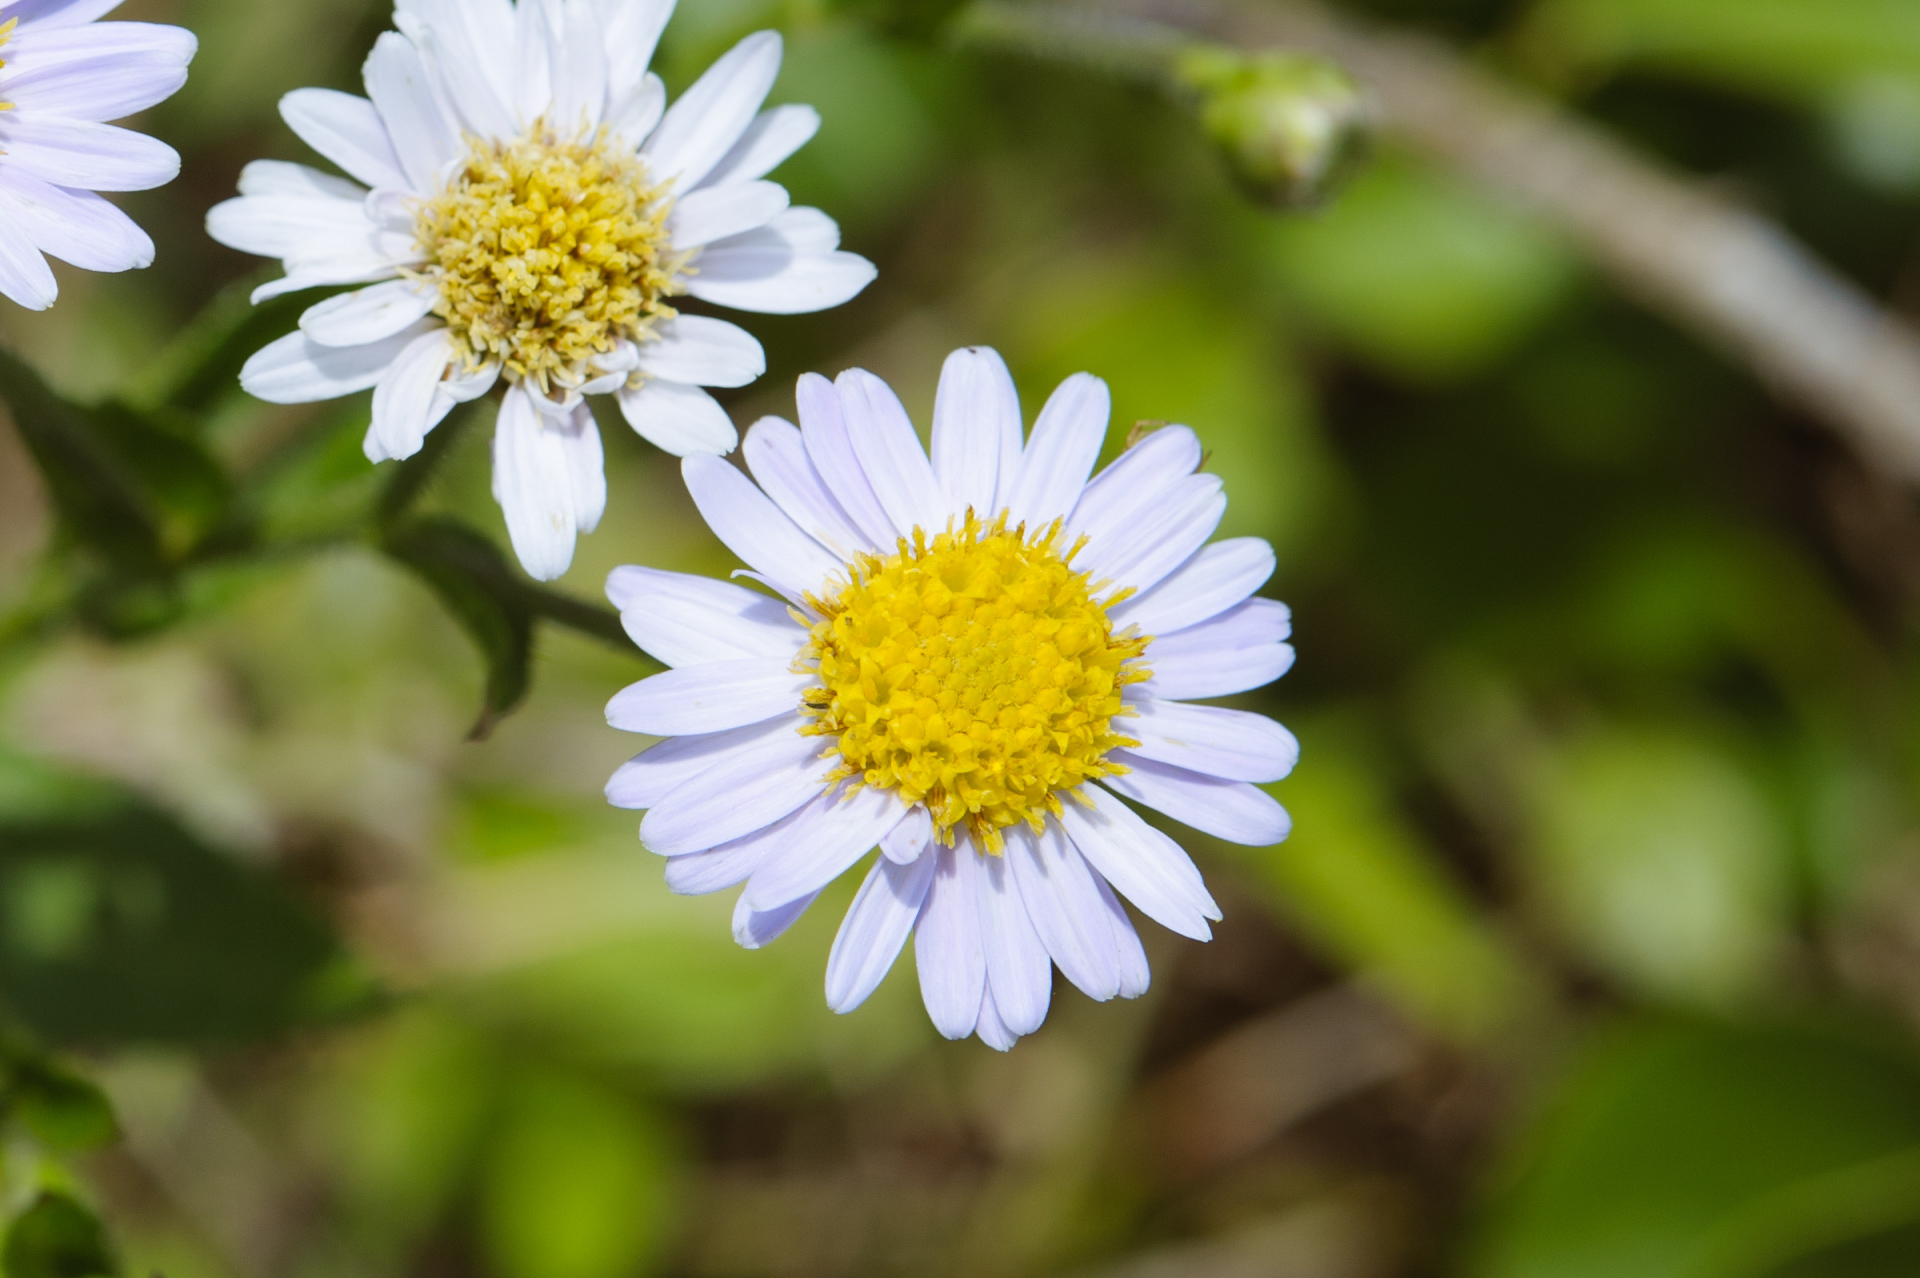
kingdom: Plantae
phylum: Tracheophyta
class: Magnoliopsida
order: Asterales
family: Asteraceae
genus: Aster
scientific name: Aster turbinatus
